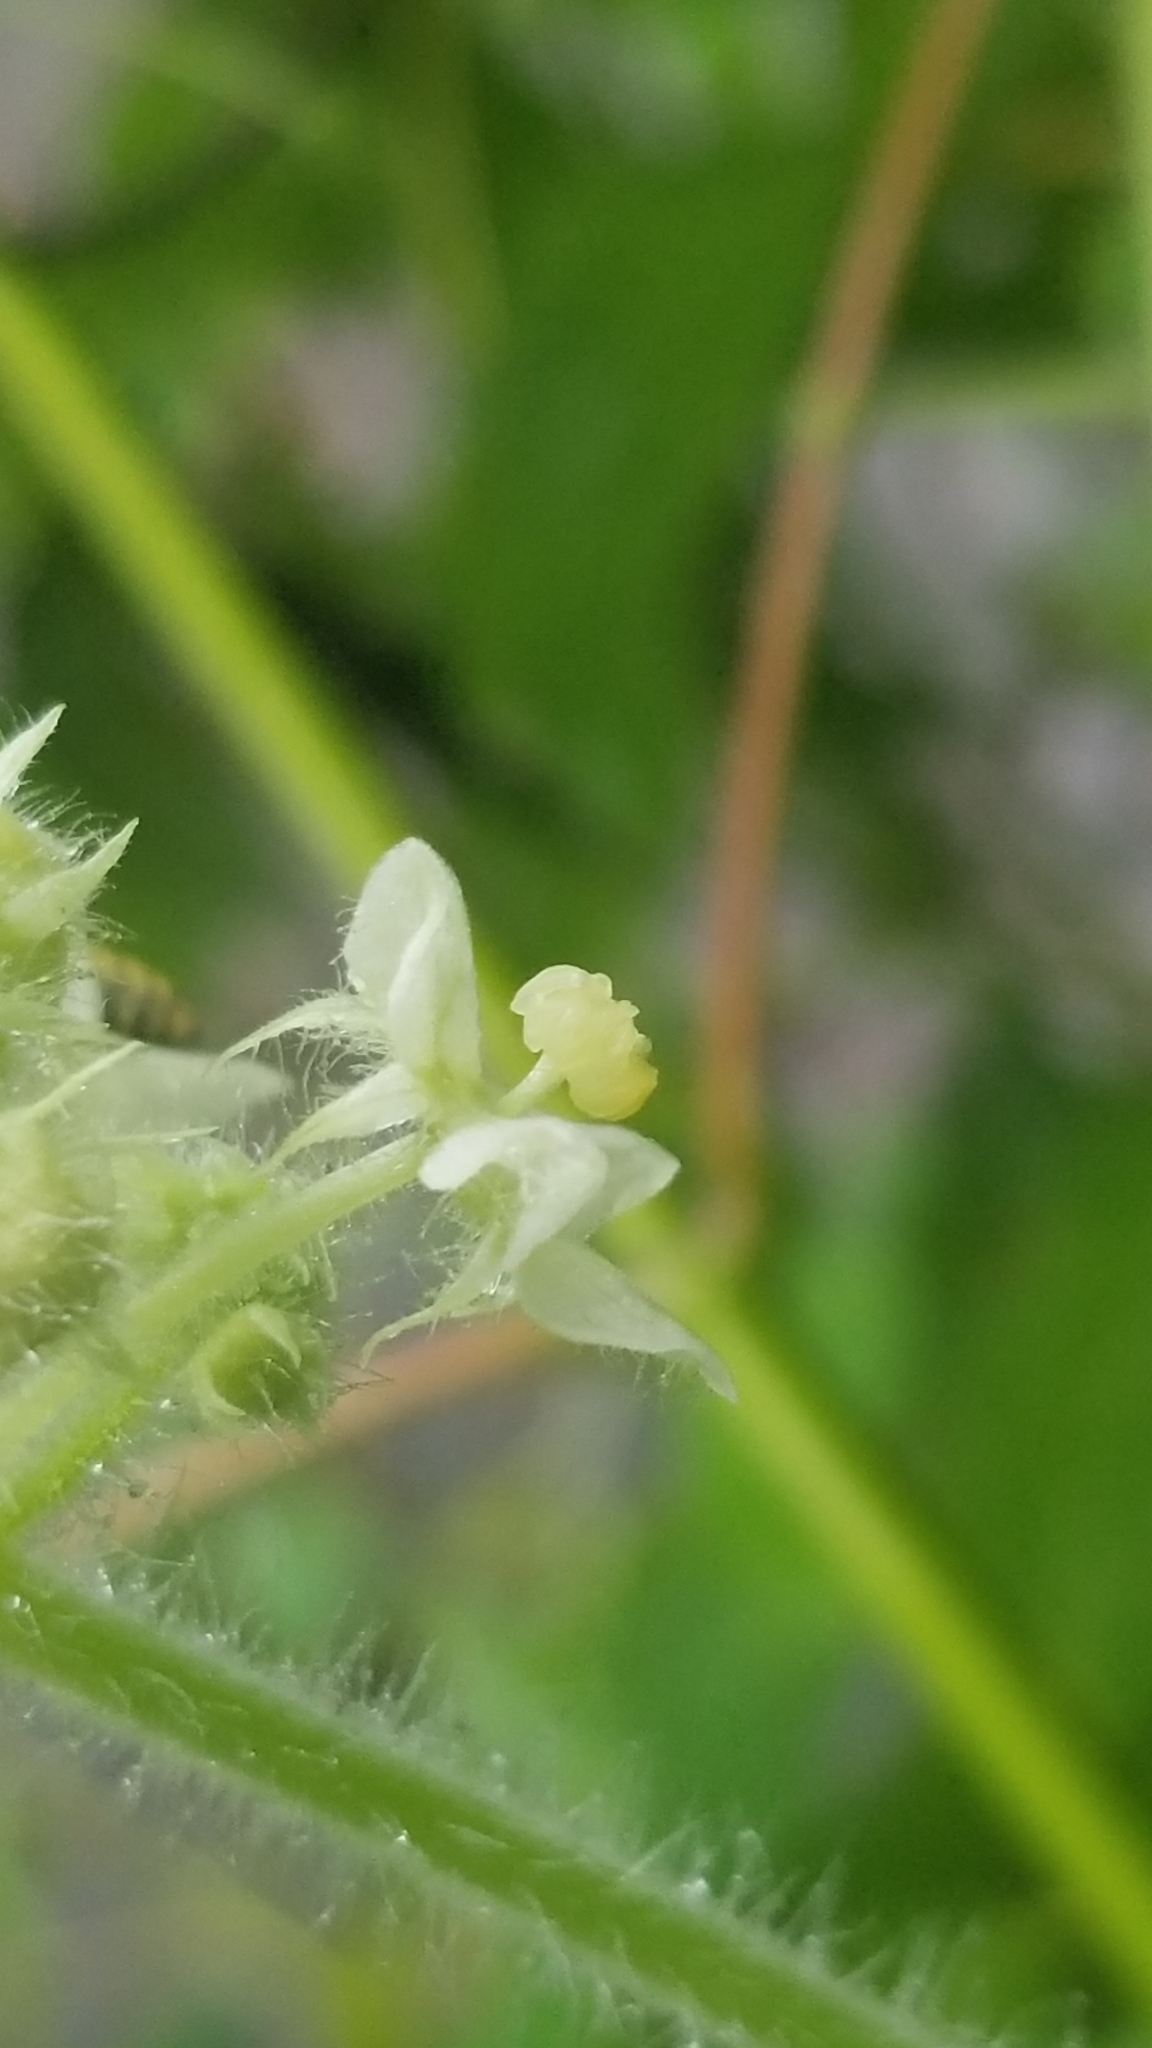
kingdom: Plantae
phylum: Tracheophyta
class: Magnoliopsida
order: Cucurbitales
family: Cucurbitaceae
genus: Sicyos
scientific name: Sicyos angulatus
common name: Angled burr cucumber
